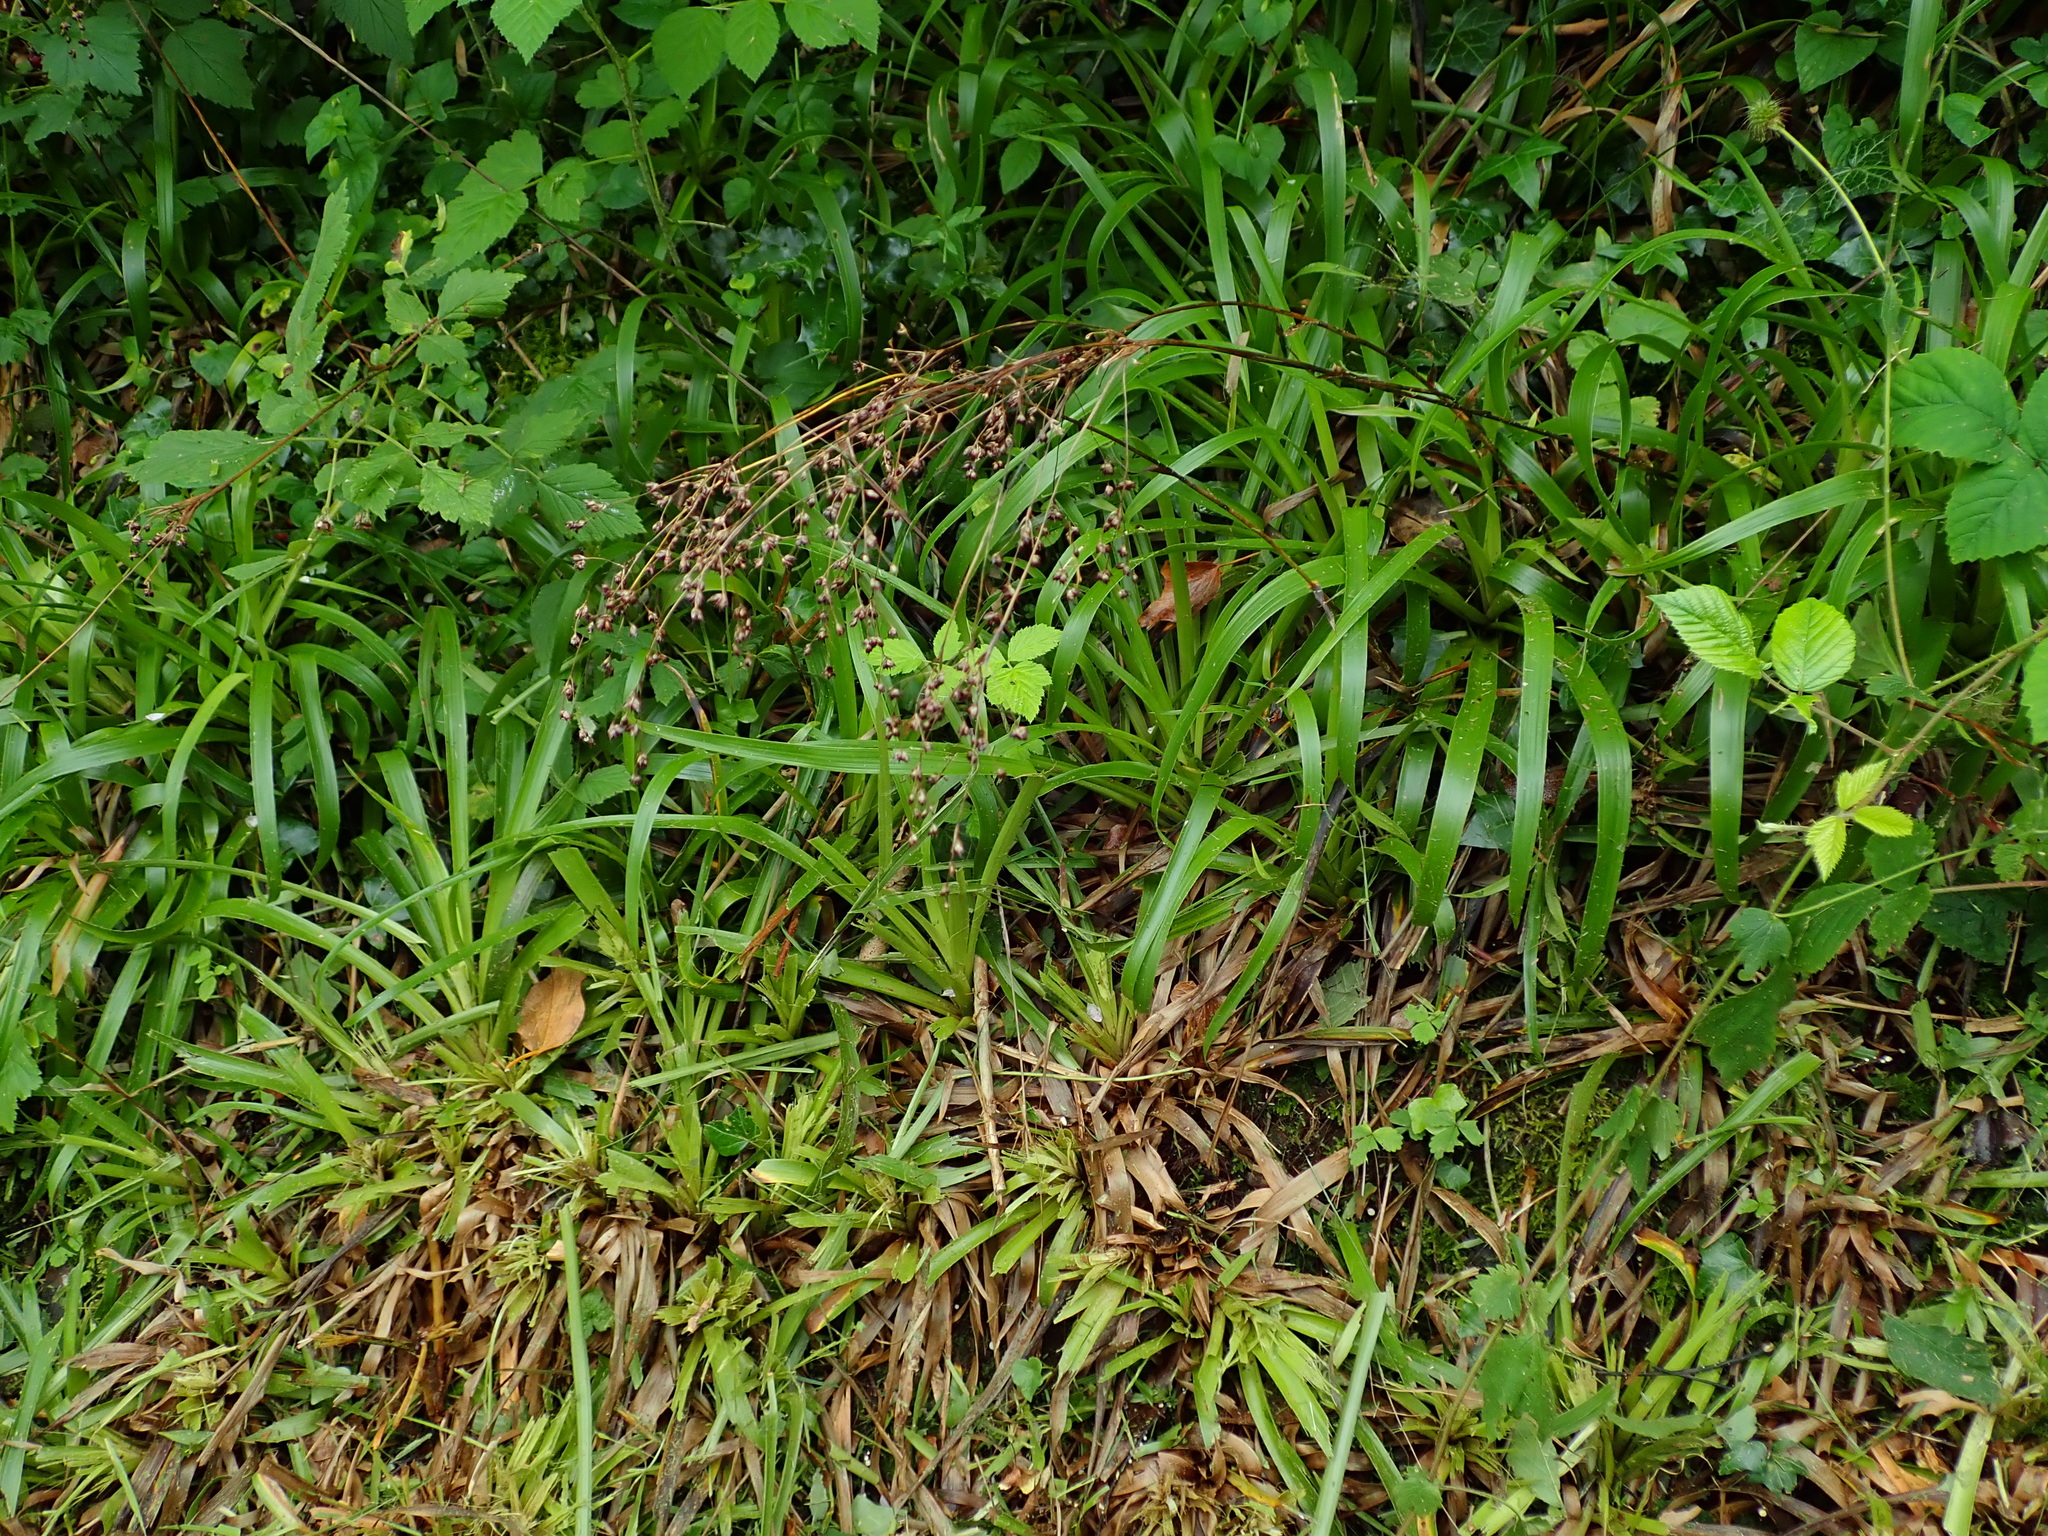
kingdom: Plantae
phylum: Tracheophyta
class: Liliopsida
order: Poales
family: Juncaceae
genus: Luzula
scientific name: Luzula sylvatica
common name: Great wood-rush
